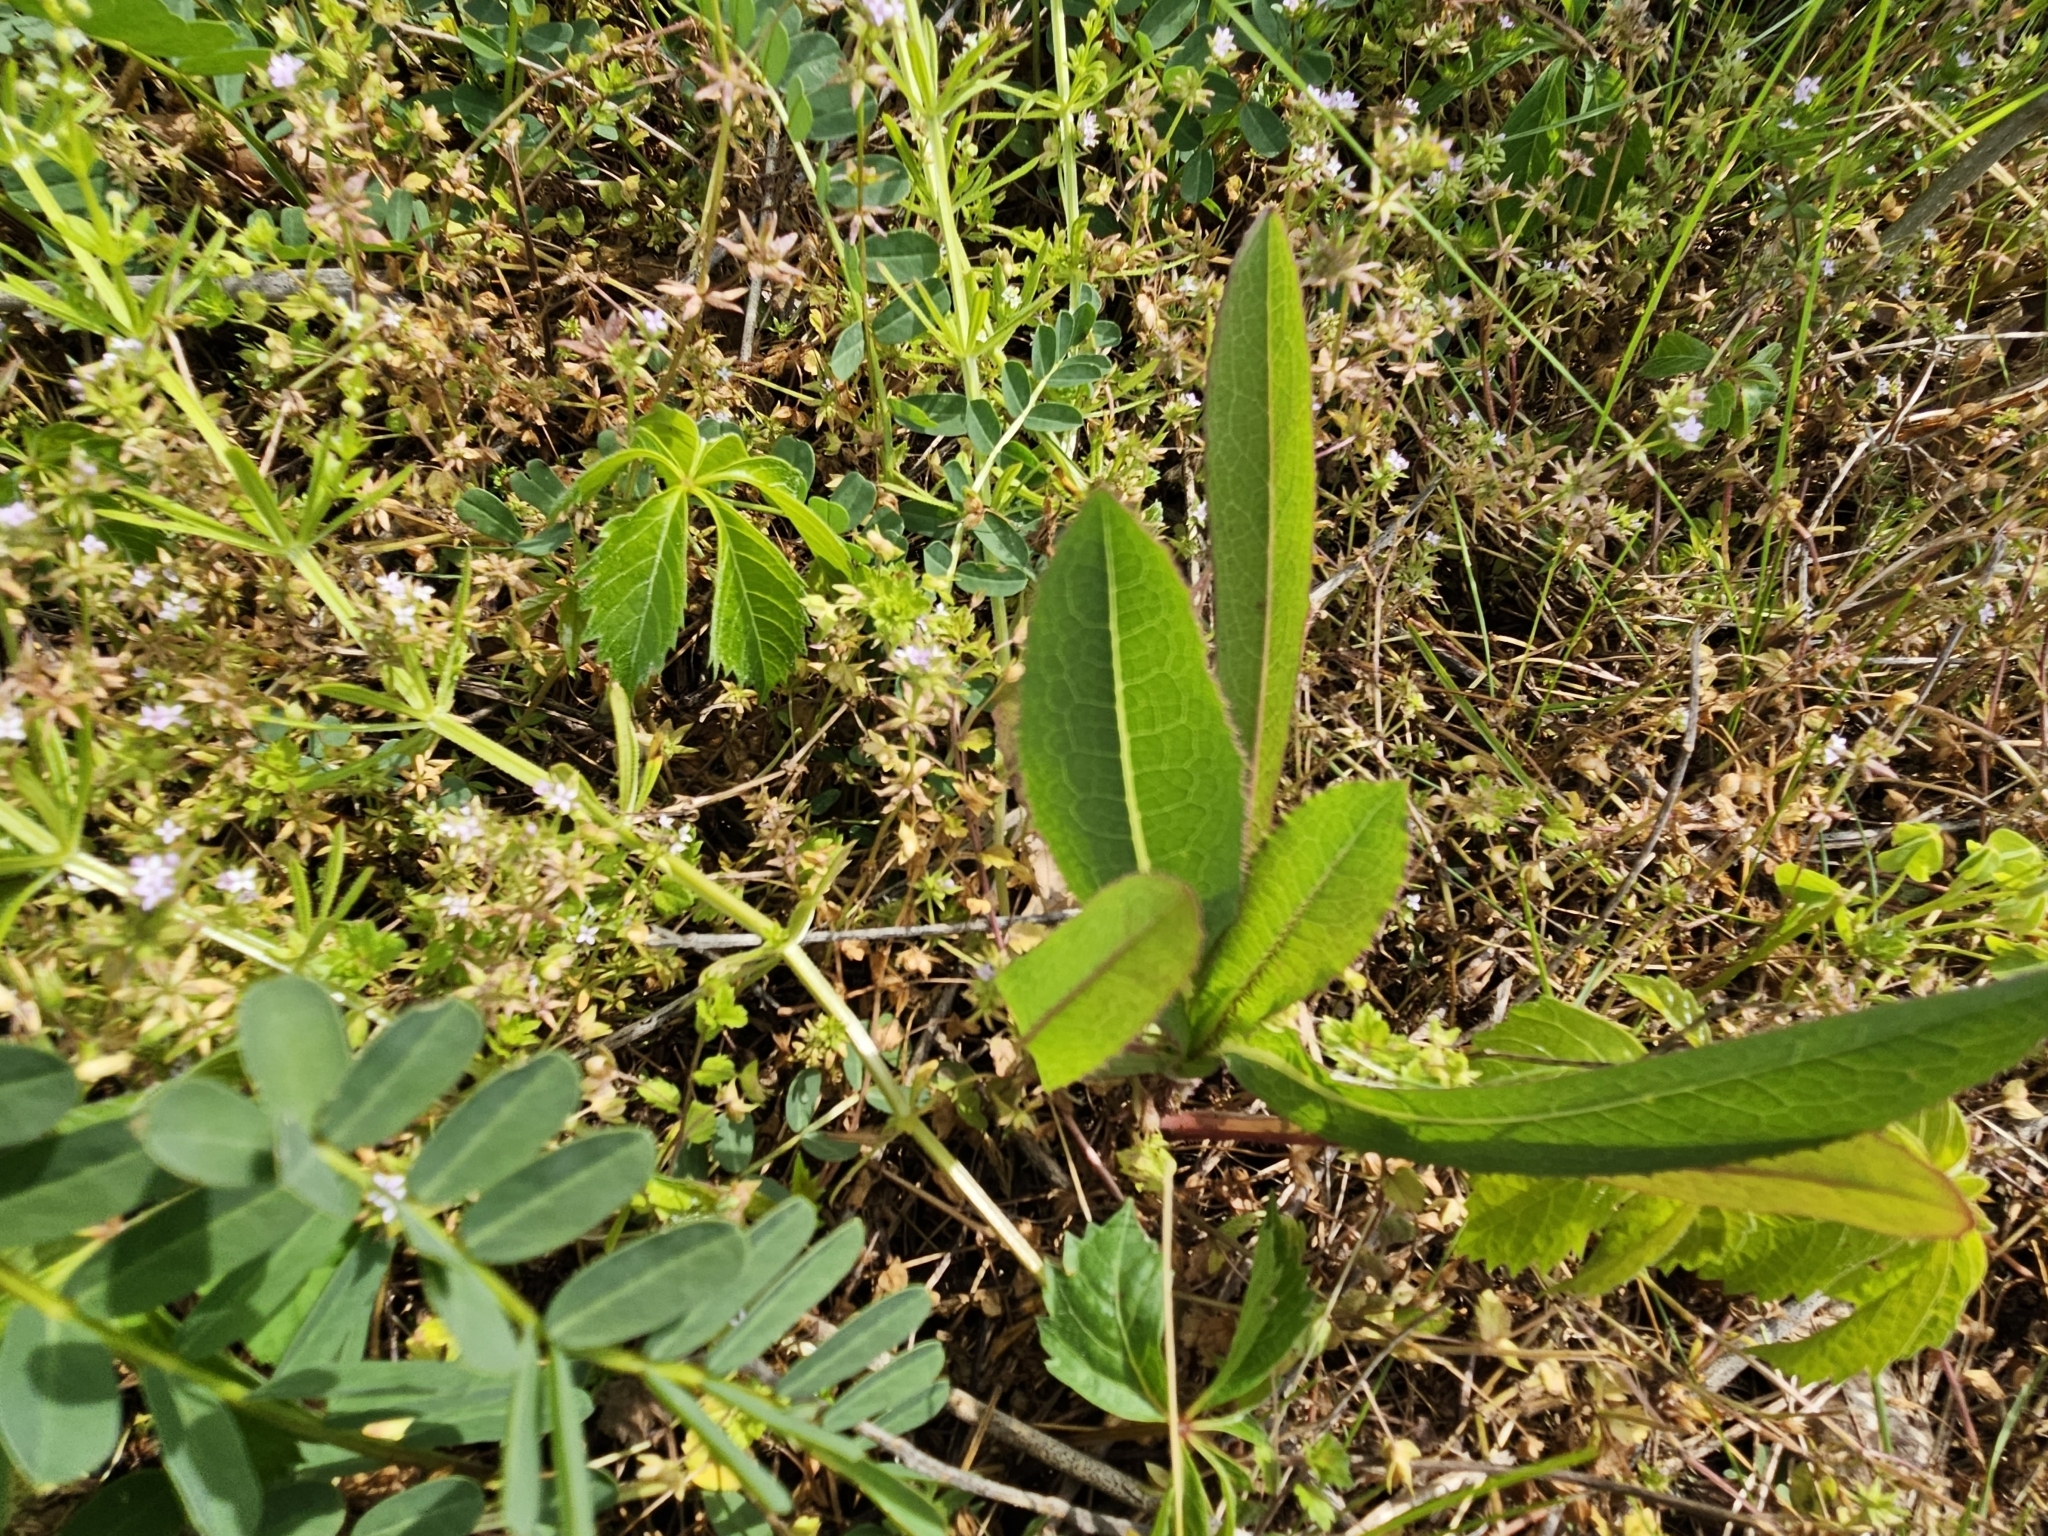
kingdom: Plantae
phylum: Tracheophyta
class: Magnoliopsida
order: Asterales
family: Asteraceae
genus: Lactuca
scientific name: Lactuca serriola
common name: Prickly lettuce
